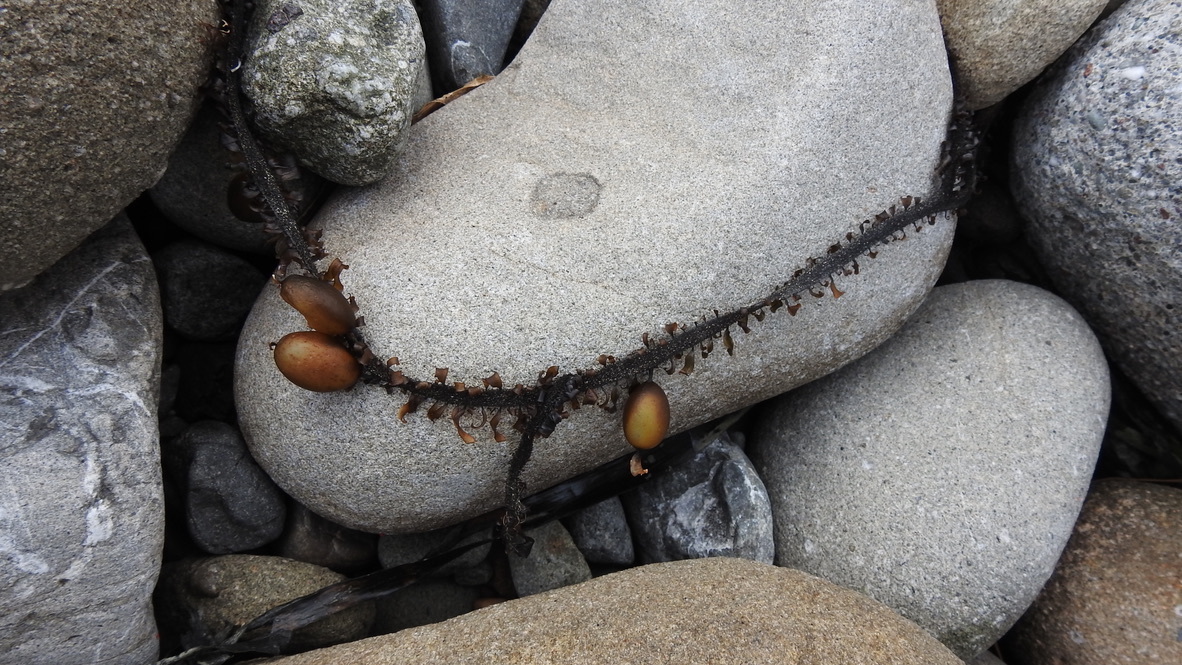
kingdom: Chromista
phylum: Ochrophyta
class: Phaeophyceae
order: Laminariales
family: Lessoniaceae
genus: Egregia
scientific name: Egregia menziesii
